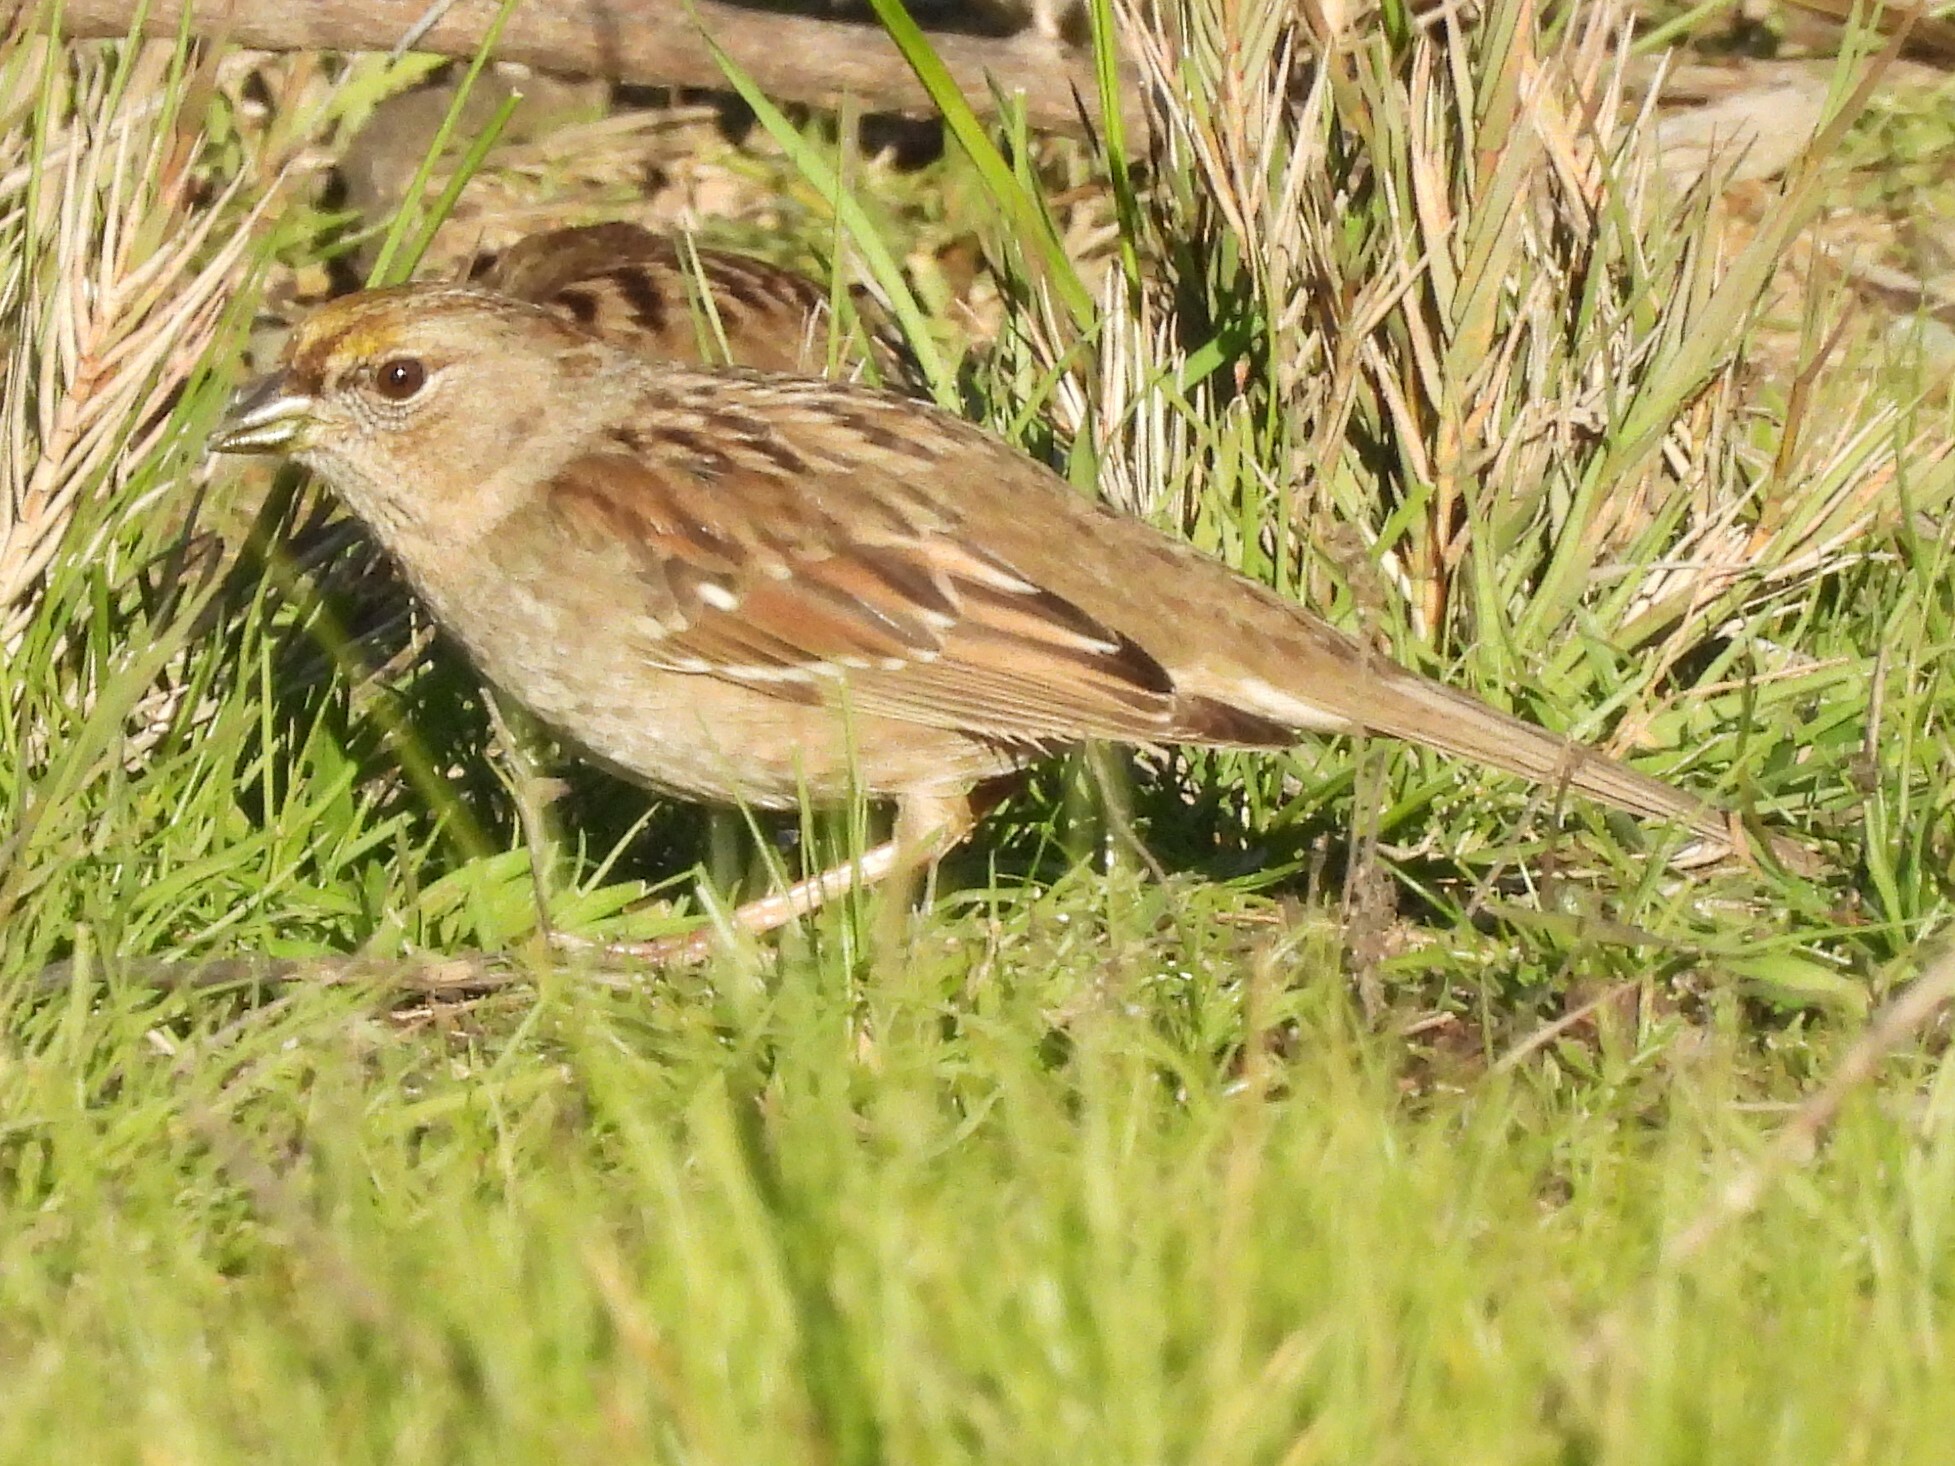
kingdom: Animalia
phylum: Chordata
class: Aves
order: Passeriformes
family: Passerellidae
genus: Zonotrichia
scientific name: Zonotrichia atricapilla
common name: Golden-crowned sparrow
